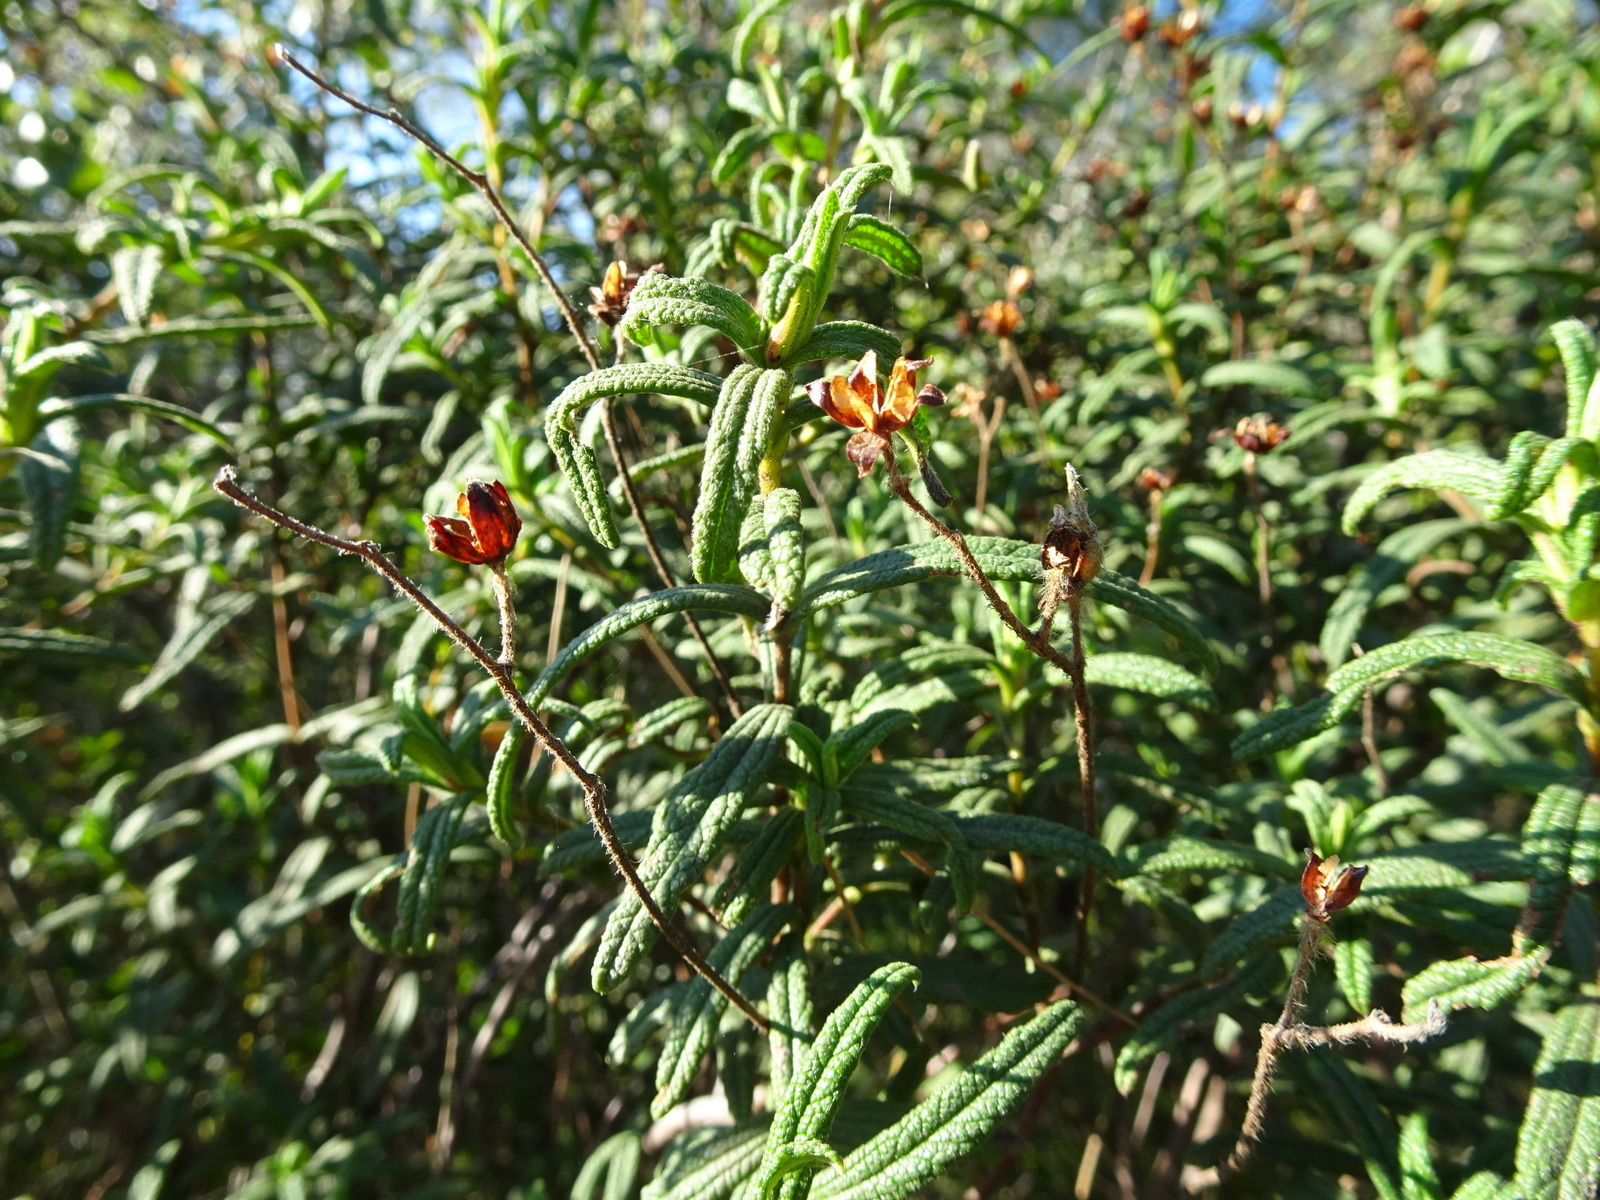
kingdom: Plantae
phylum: Tracheophyta
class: Magnoliopsida
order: Malvales
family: Cistaceae
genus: Cistus
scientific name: Cistus monspeliensis
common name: Montpelier cistus
